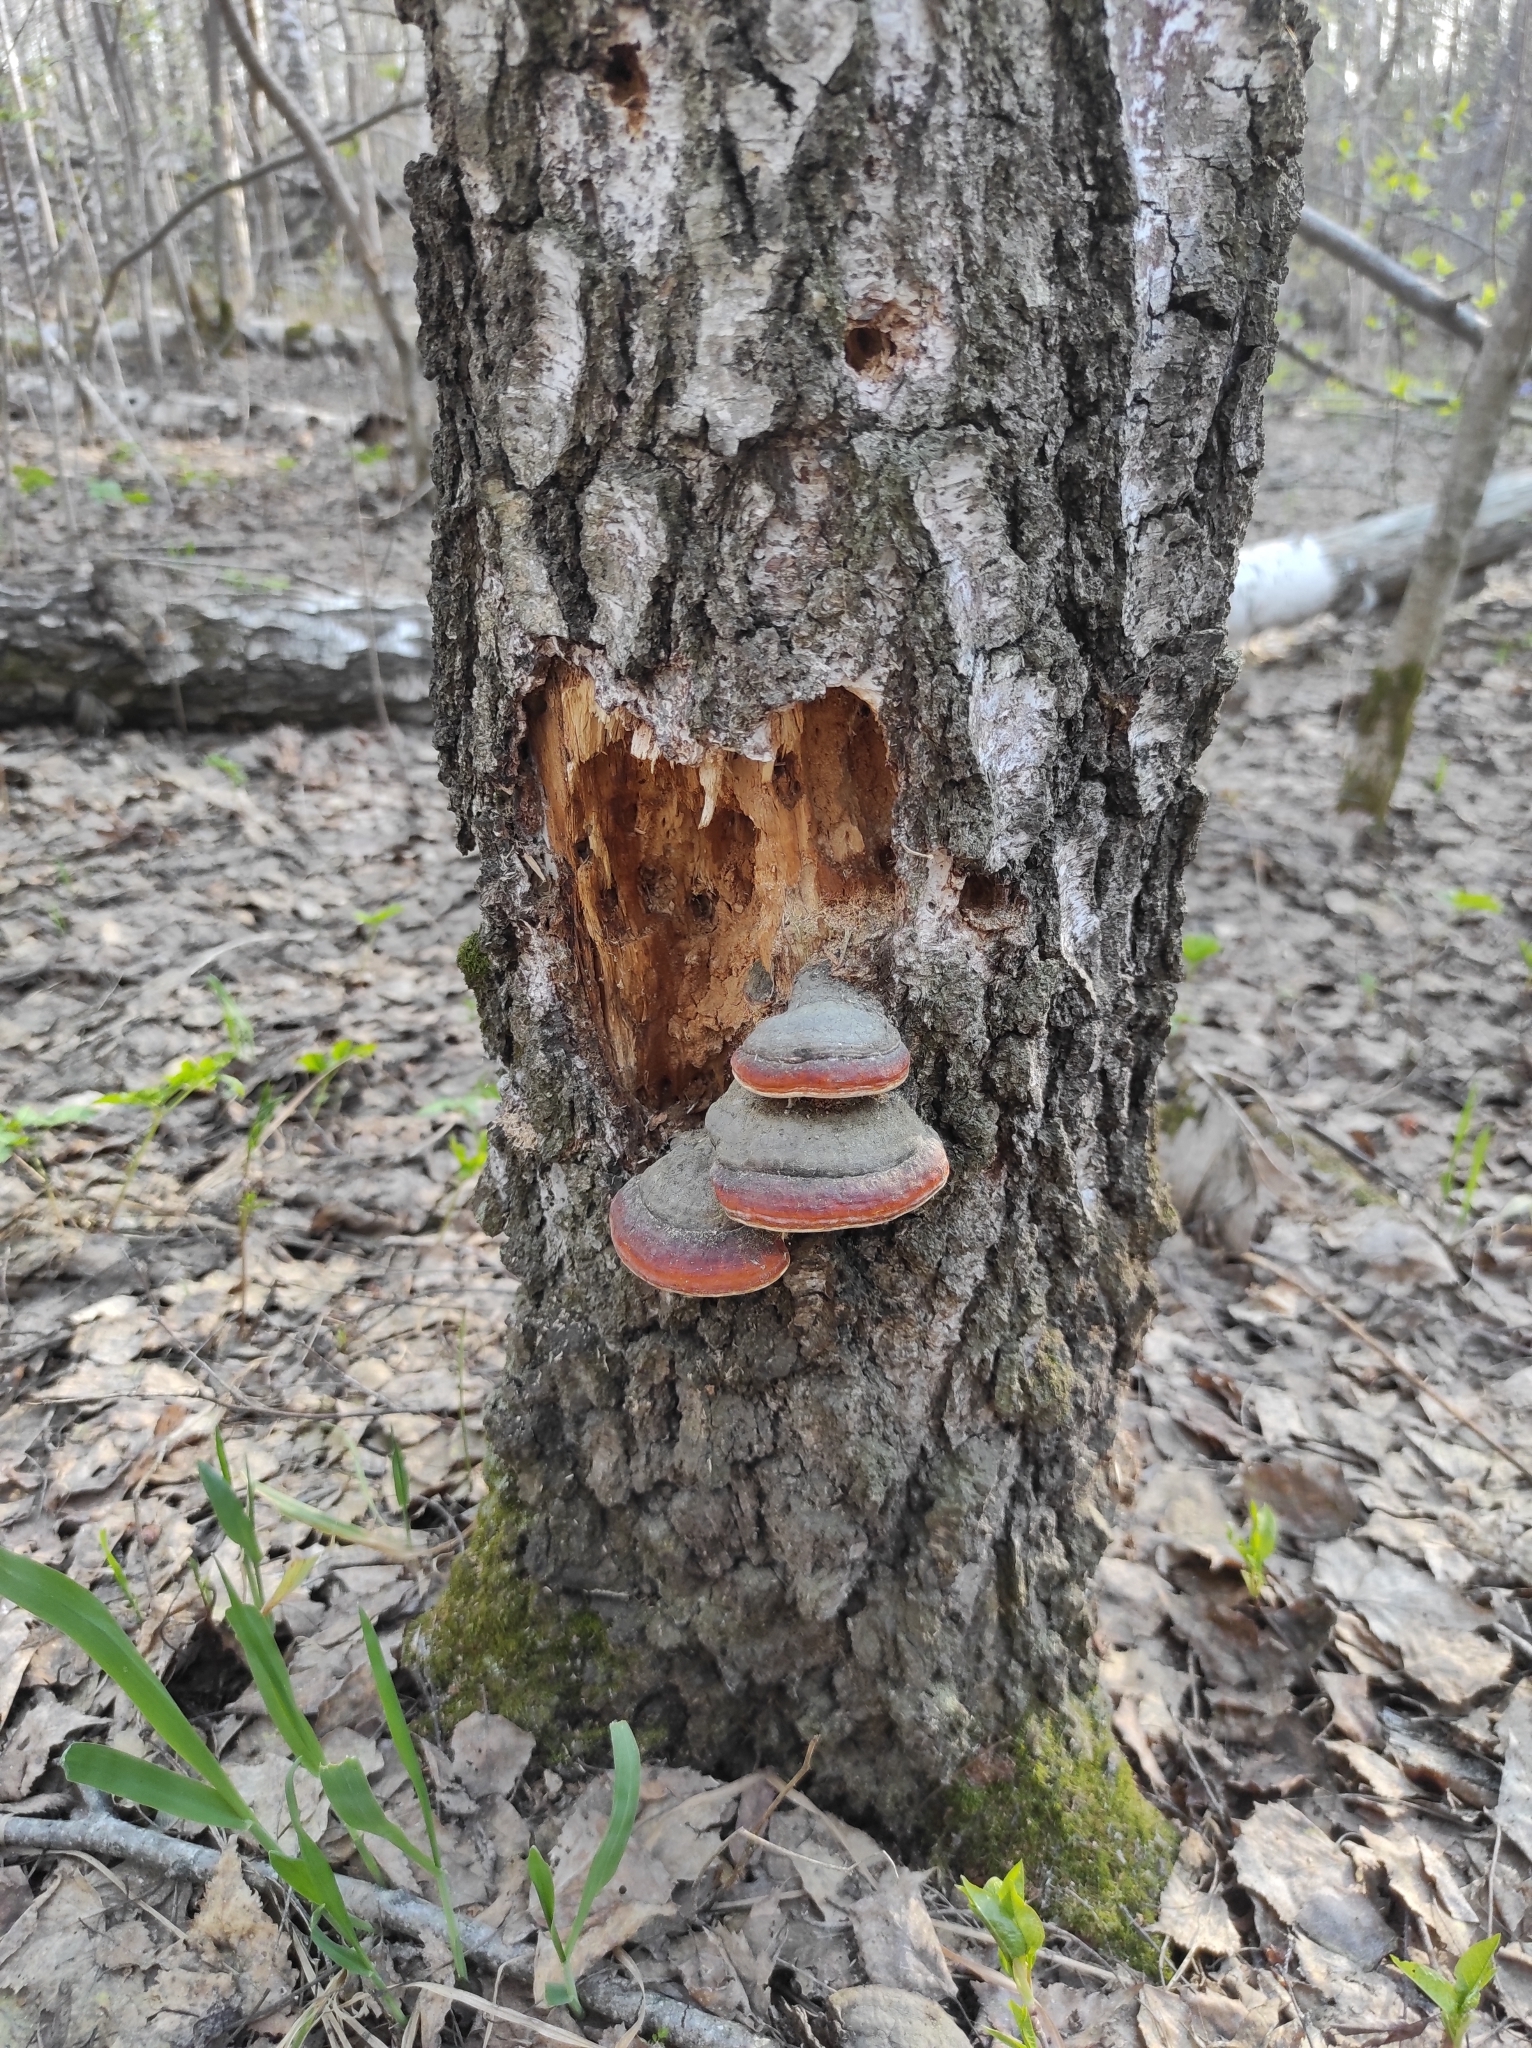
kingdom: Fungi
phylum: Basidiomycota
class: Agaricomycetes
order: Polyporales
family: Fomitopsidaceae
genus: Fomitopsis
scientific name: Fomitopsis pinicola
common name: Red-belted bracket
